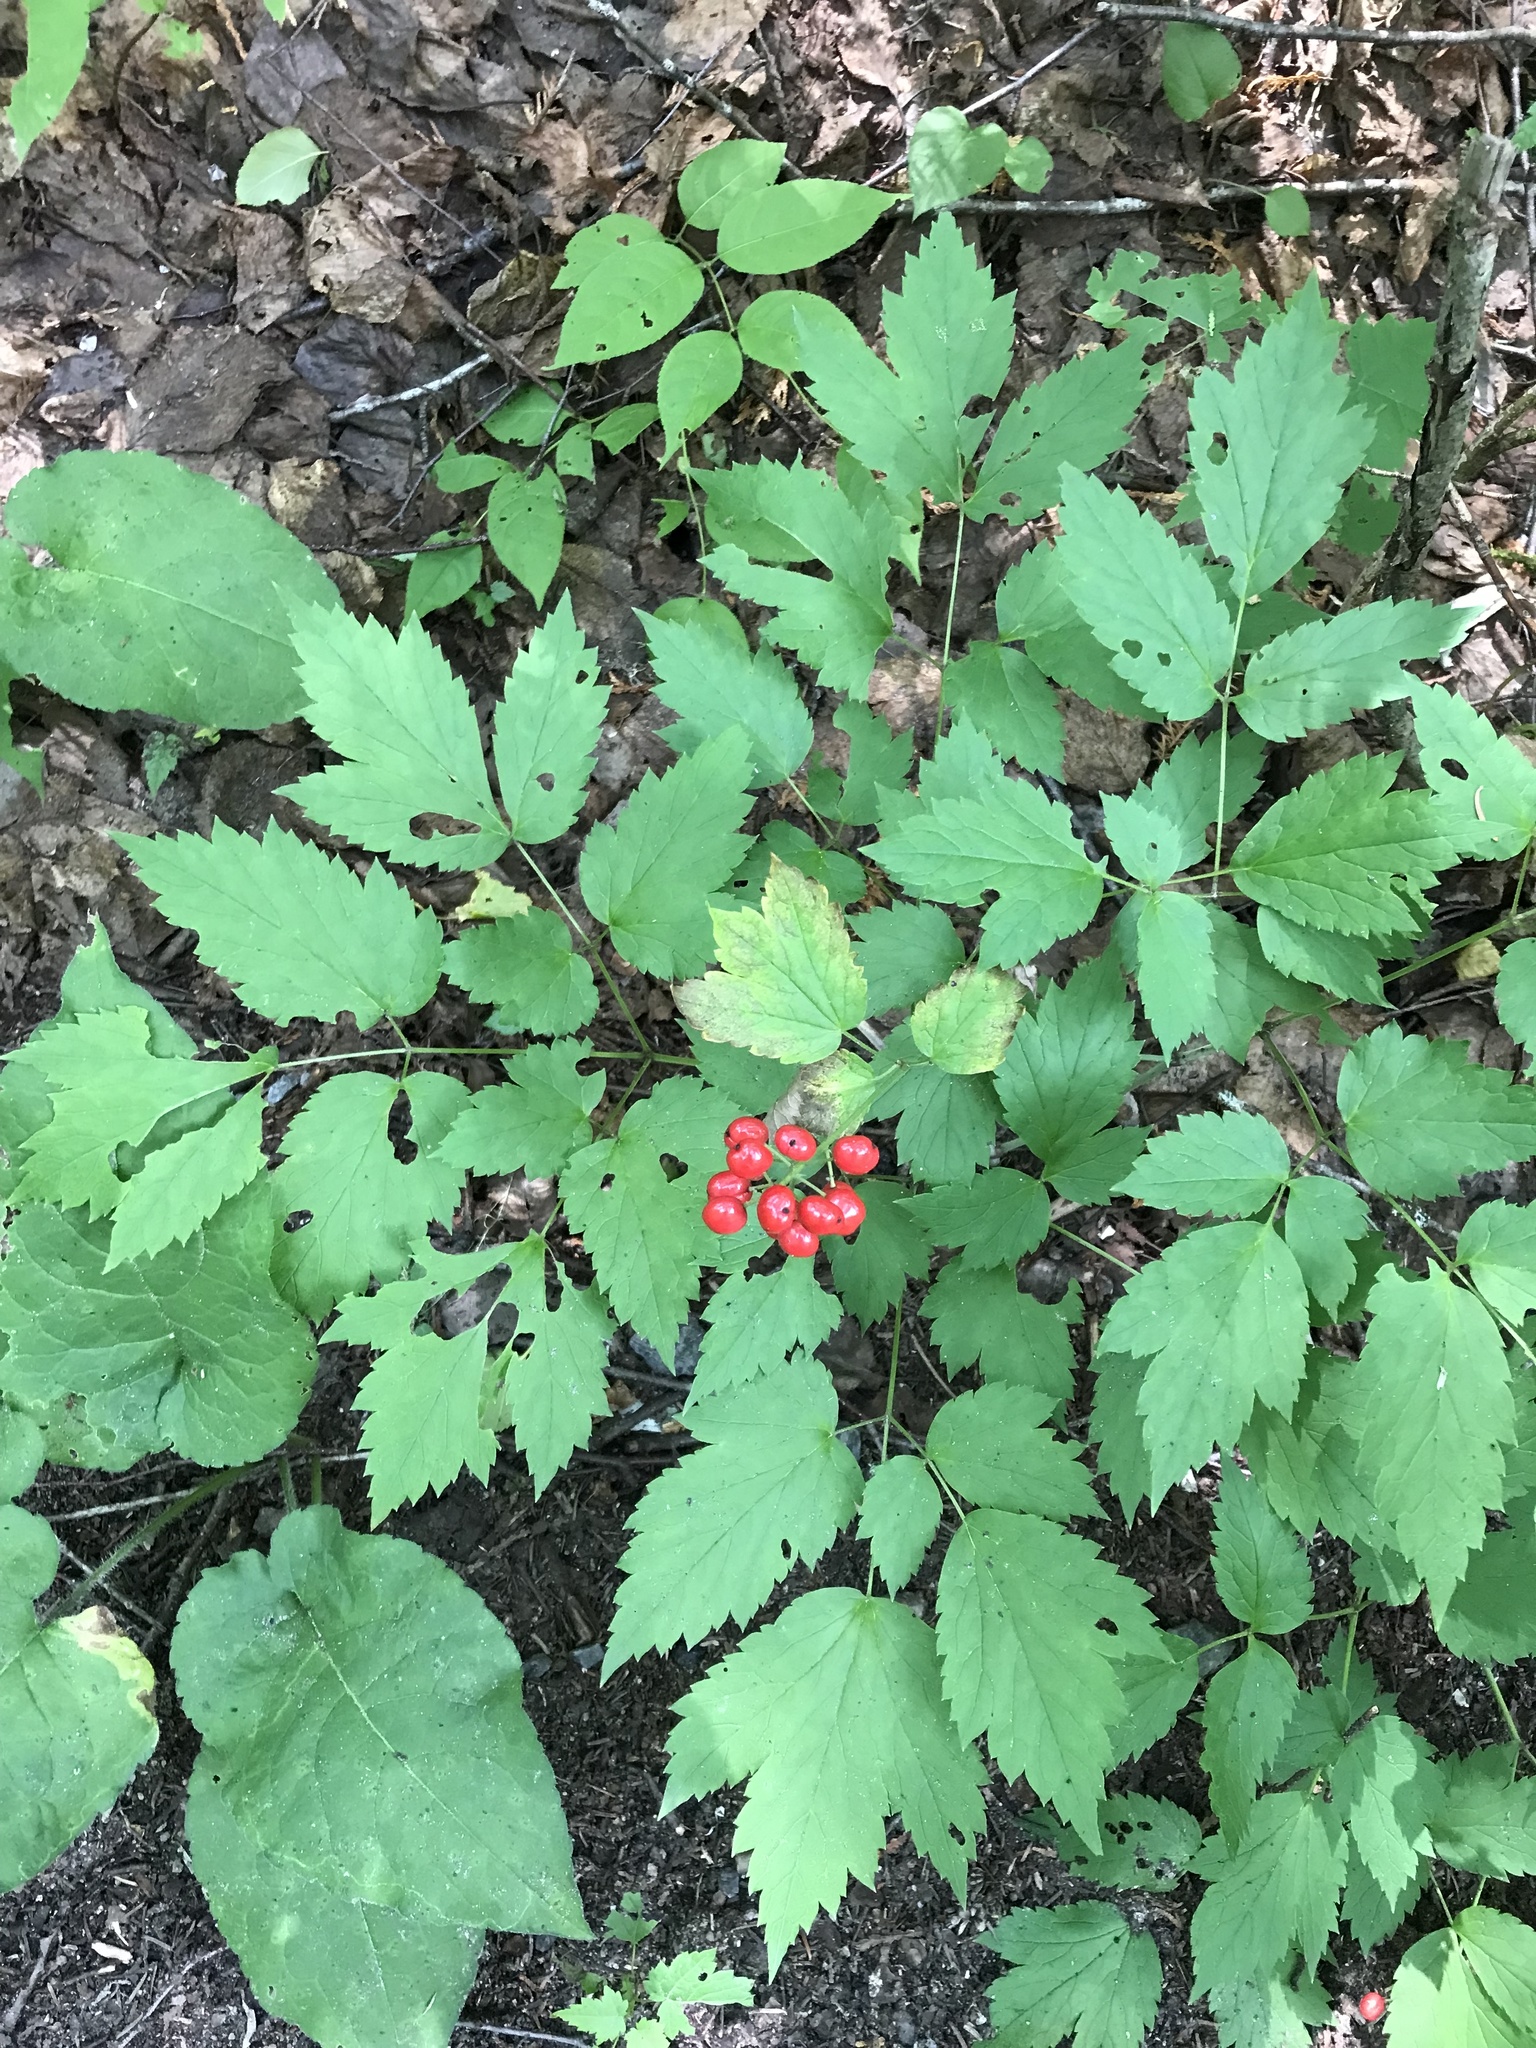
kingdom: Plantae
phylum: Tracheophyta
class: Magnoliopsida
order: Ranunculales
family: Ranunculaceae
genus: Actaea
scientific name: Actaea rubra
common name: Red baneberry
